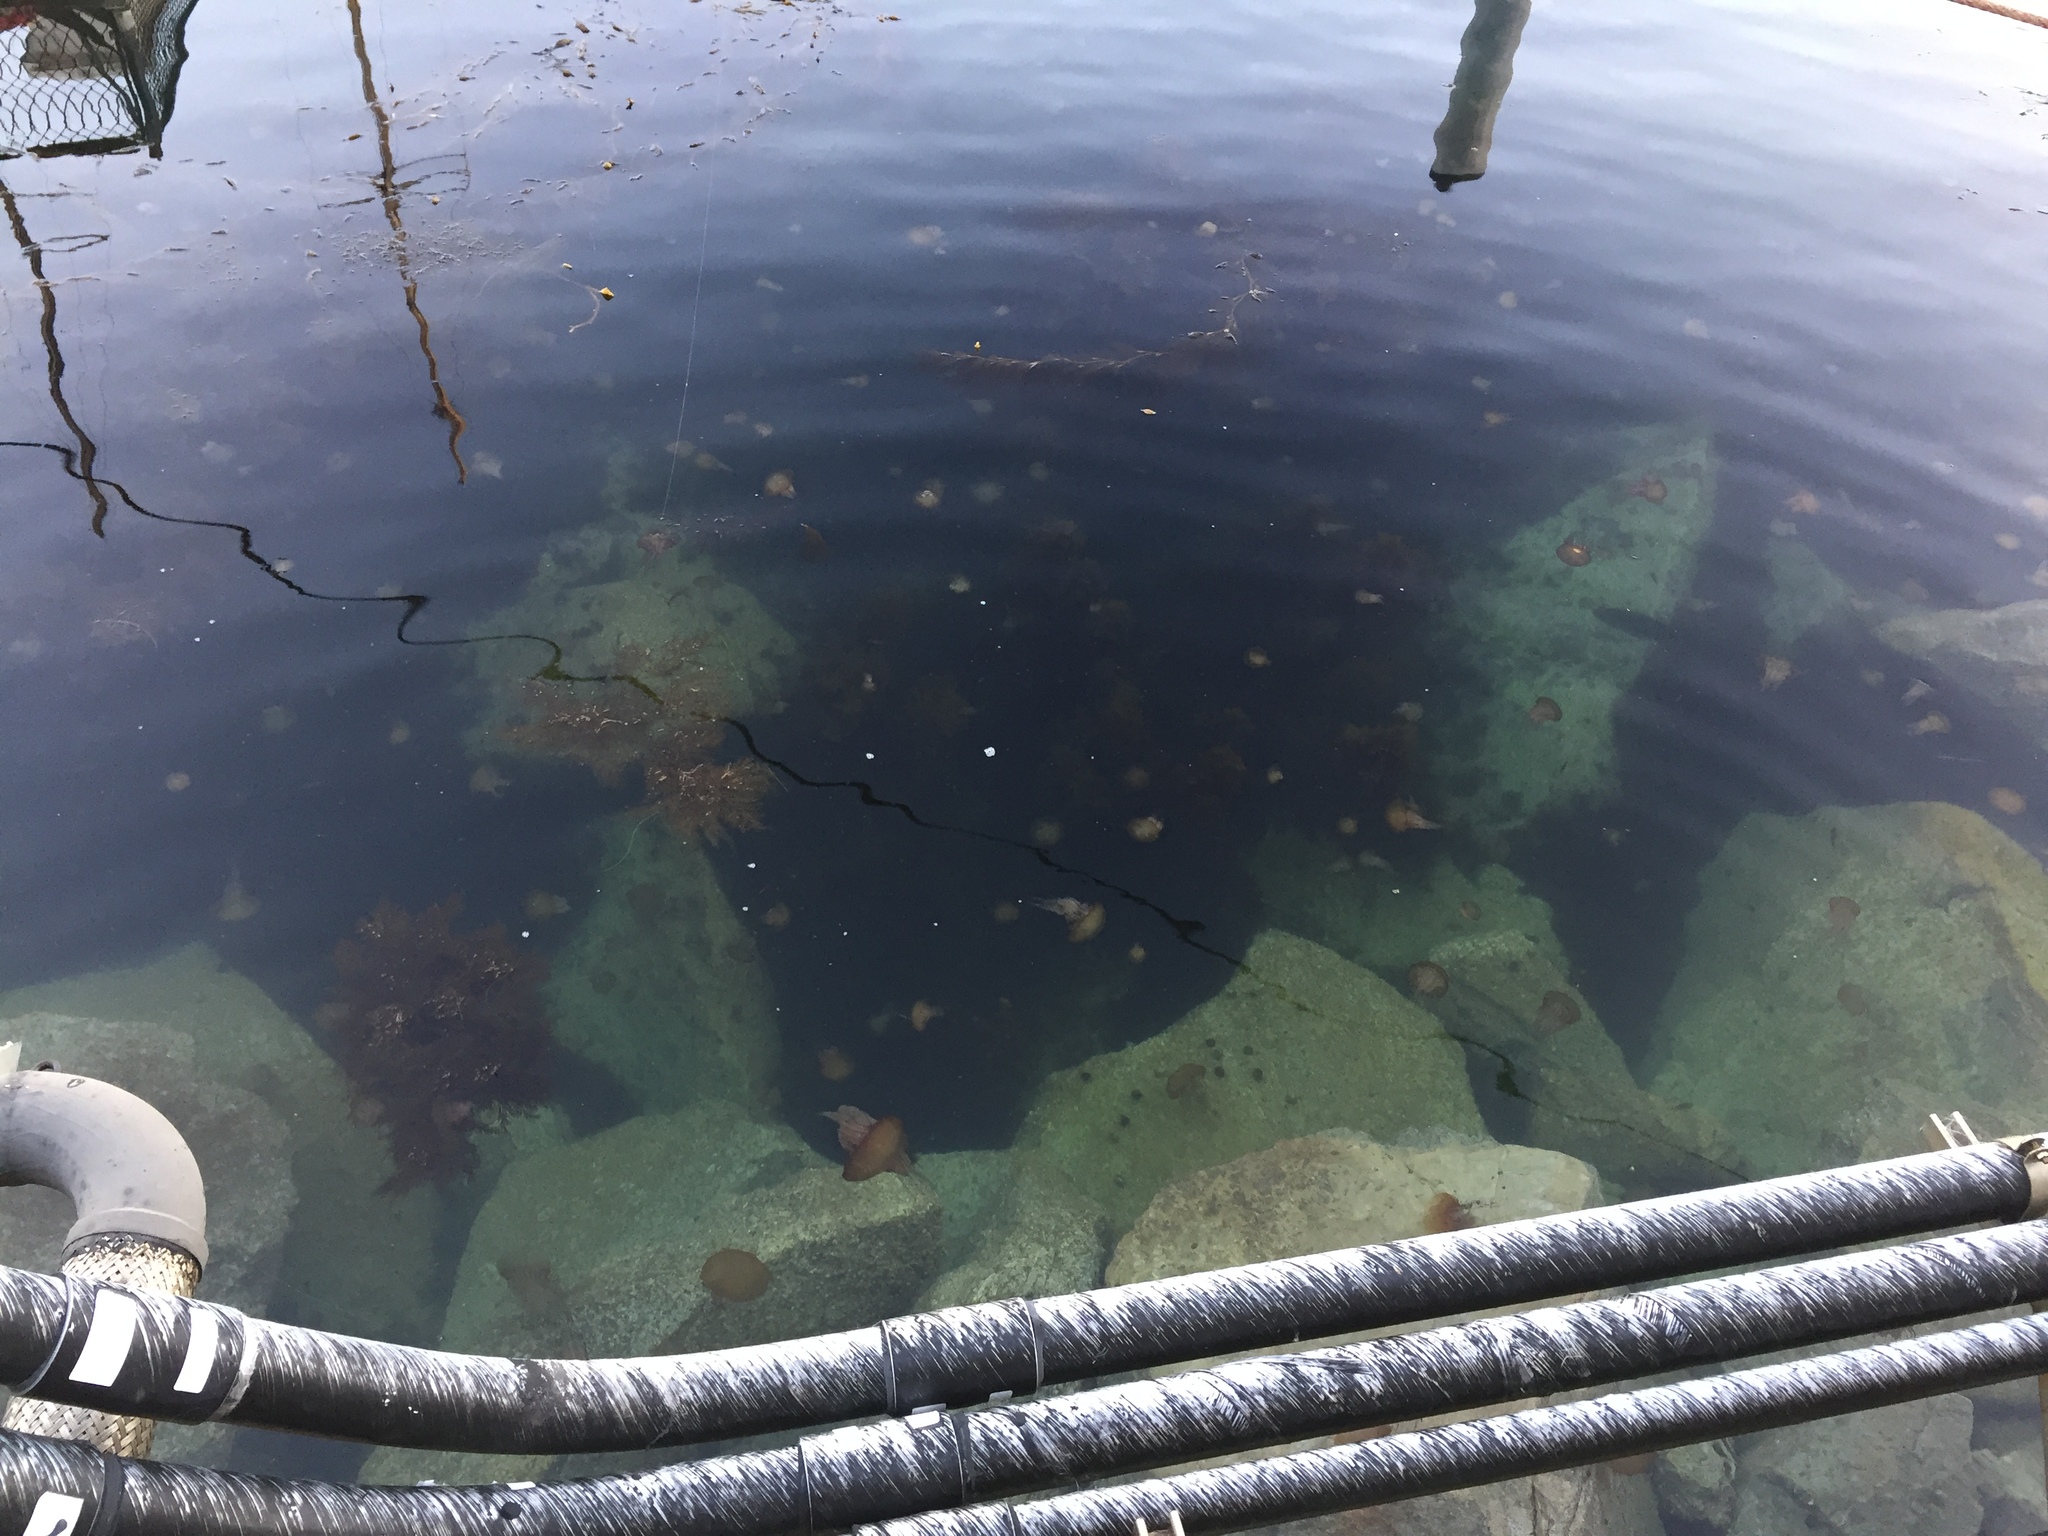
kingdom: Animalia
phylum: Cnidaria
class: Scyphozoa
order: Semaeostomeae
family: Pelagiidae
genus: Chrysaora
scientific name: Chrysaora fuscescens
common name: Sea nettle
